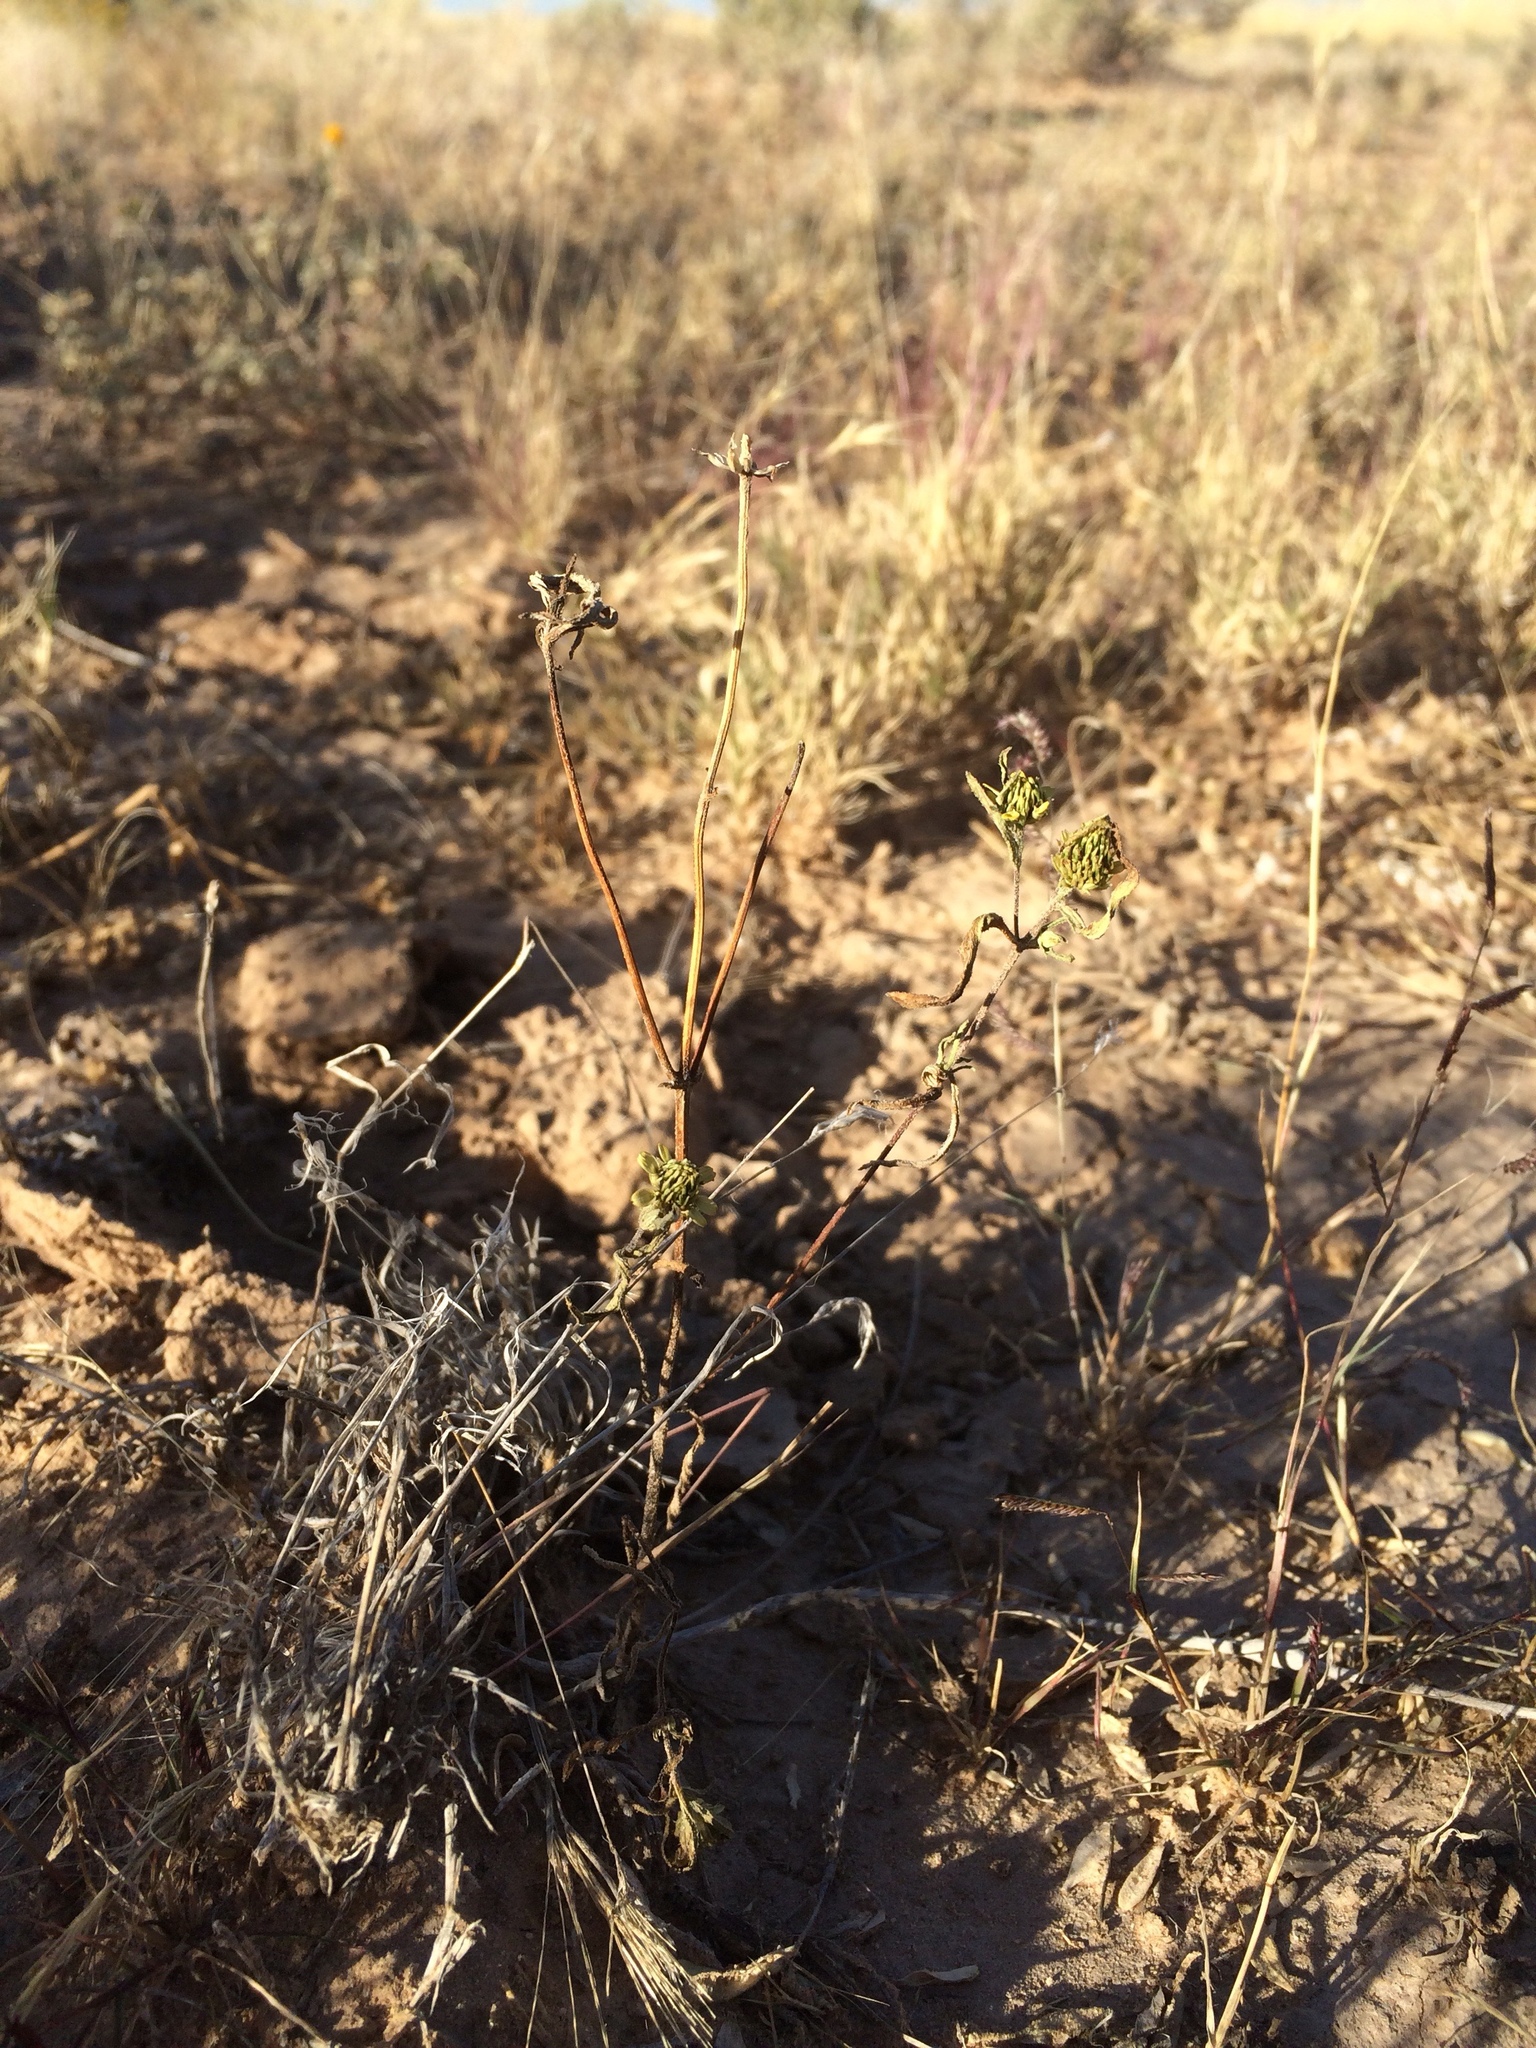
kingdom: Plantae
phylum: Tracheophyta
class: Magnoliopsida
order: Asterales
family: Asteraceae
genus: Sanvitalia
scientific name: Sanvitalia abertii
